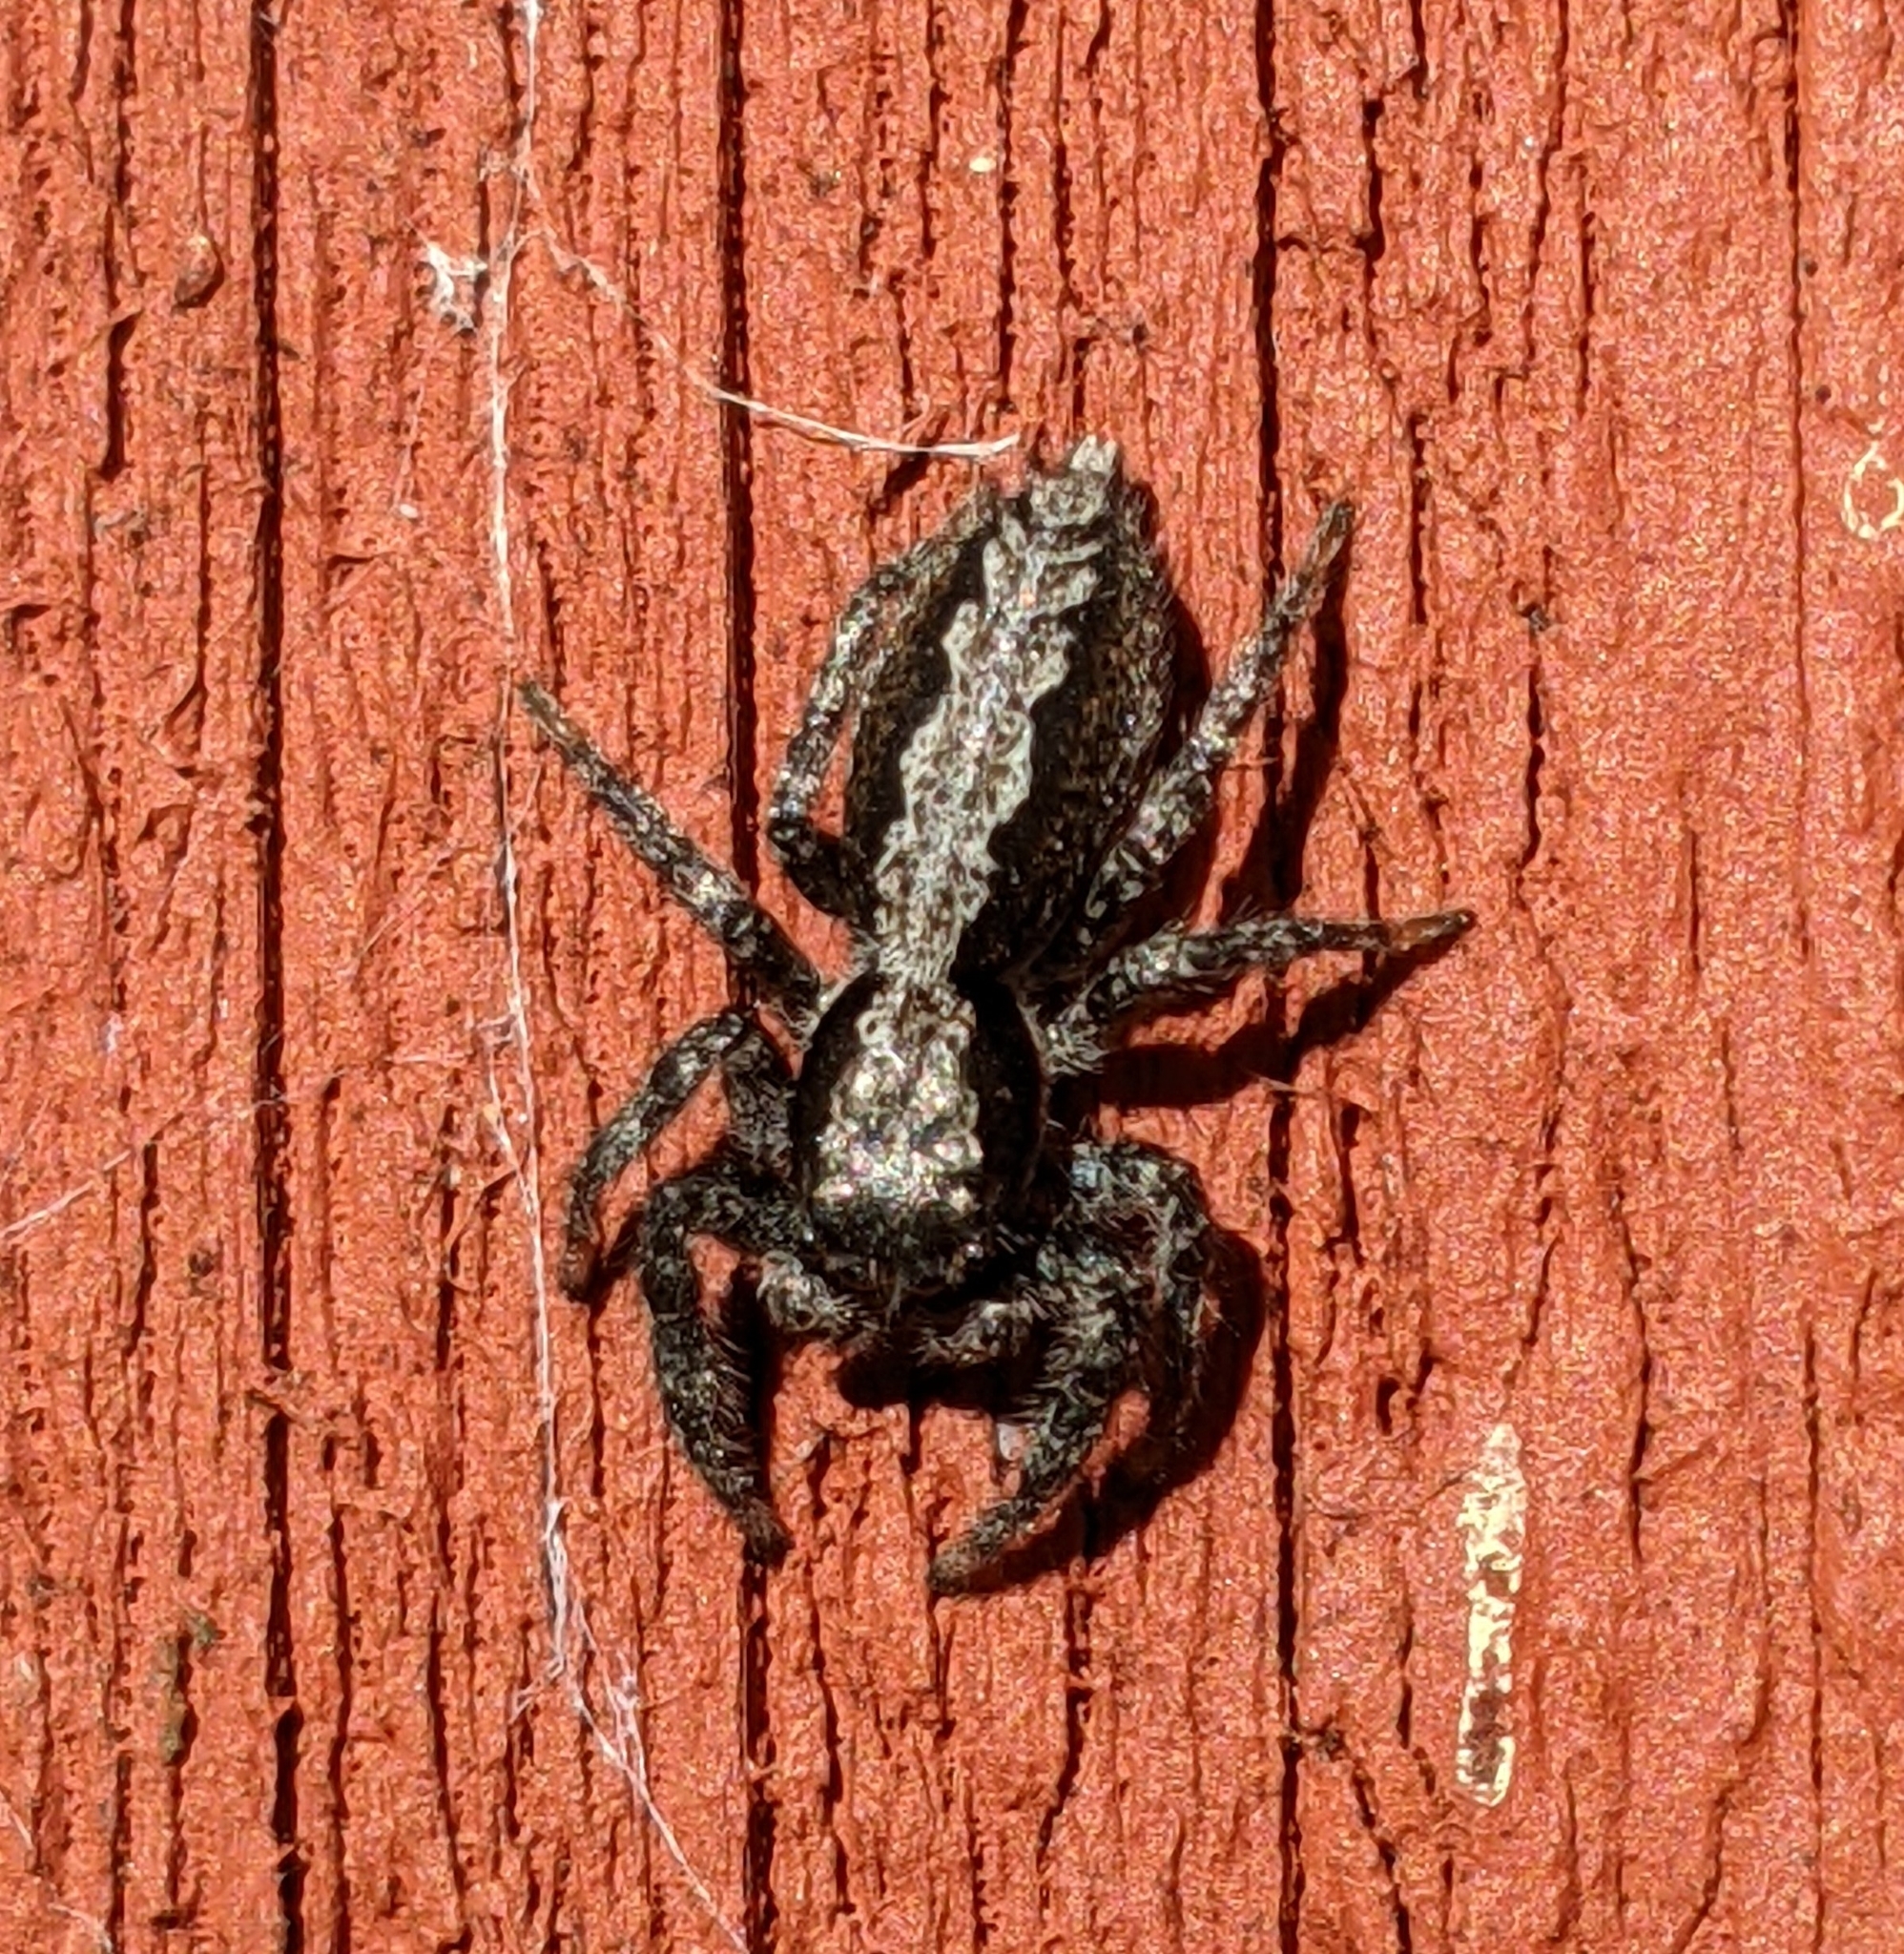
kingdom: Animalia
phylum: Arthropoda
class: Arachnida
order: Araneae
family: Salticidae
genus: Platycryptus
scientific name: Platycryptus californicus
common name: Jumping spiders
